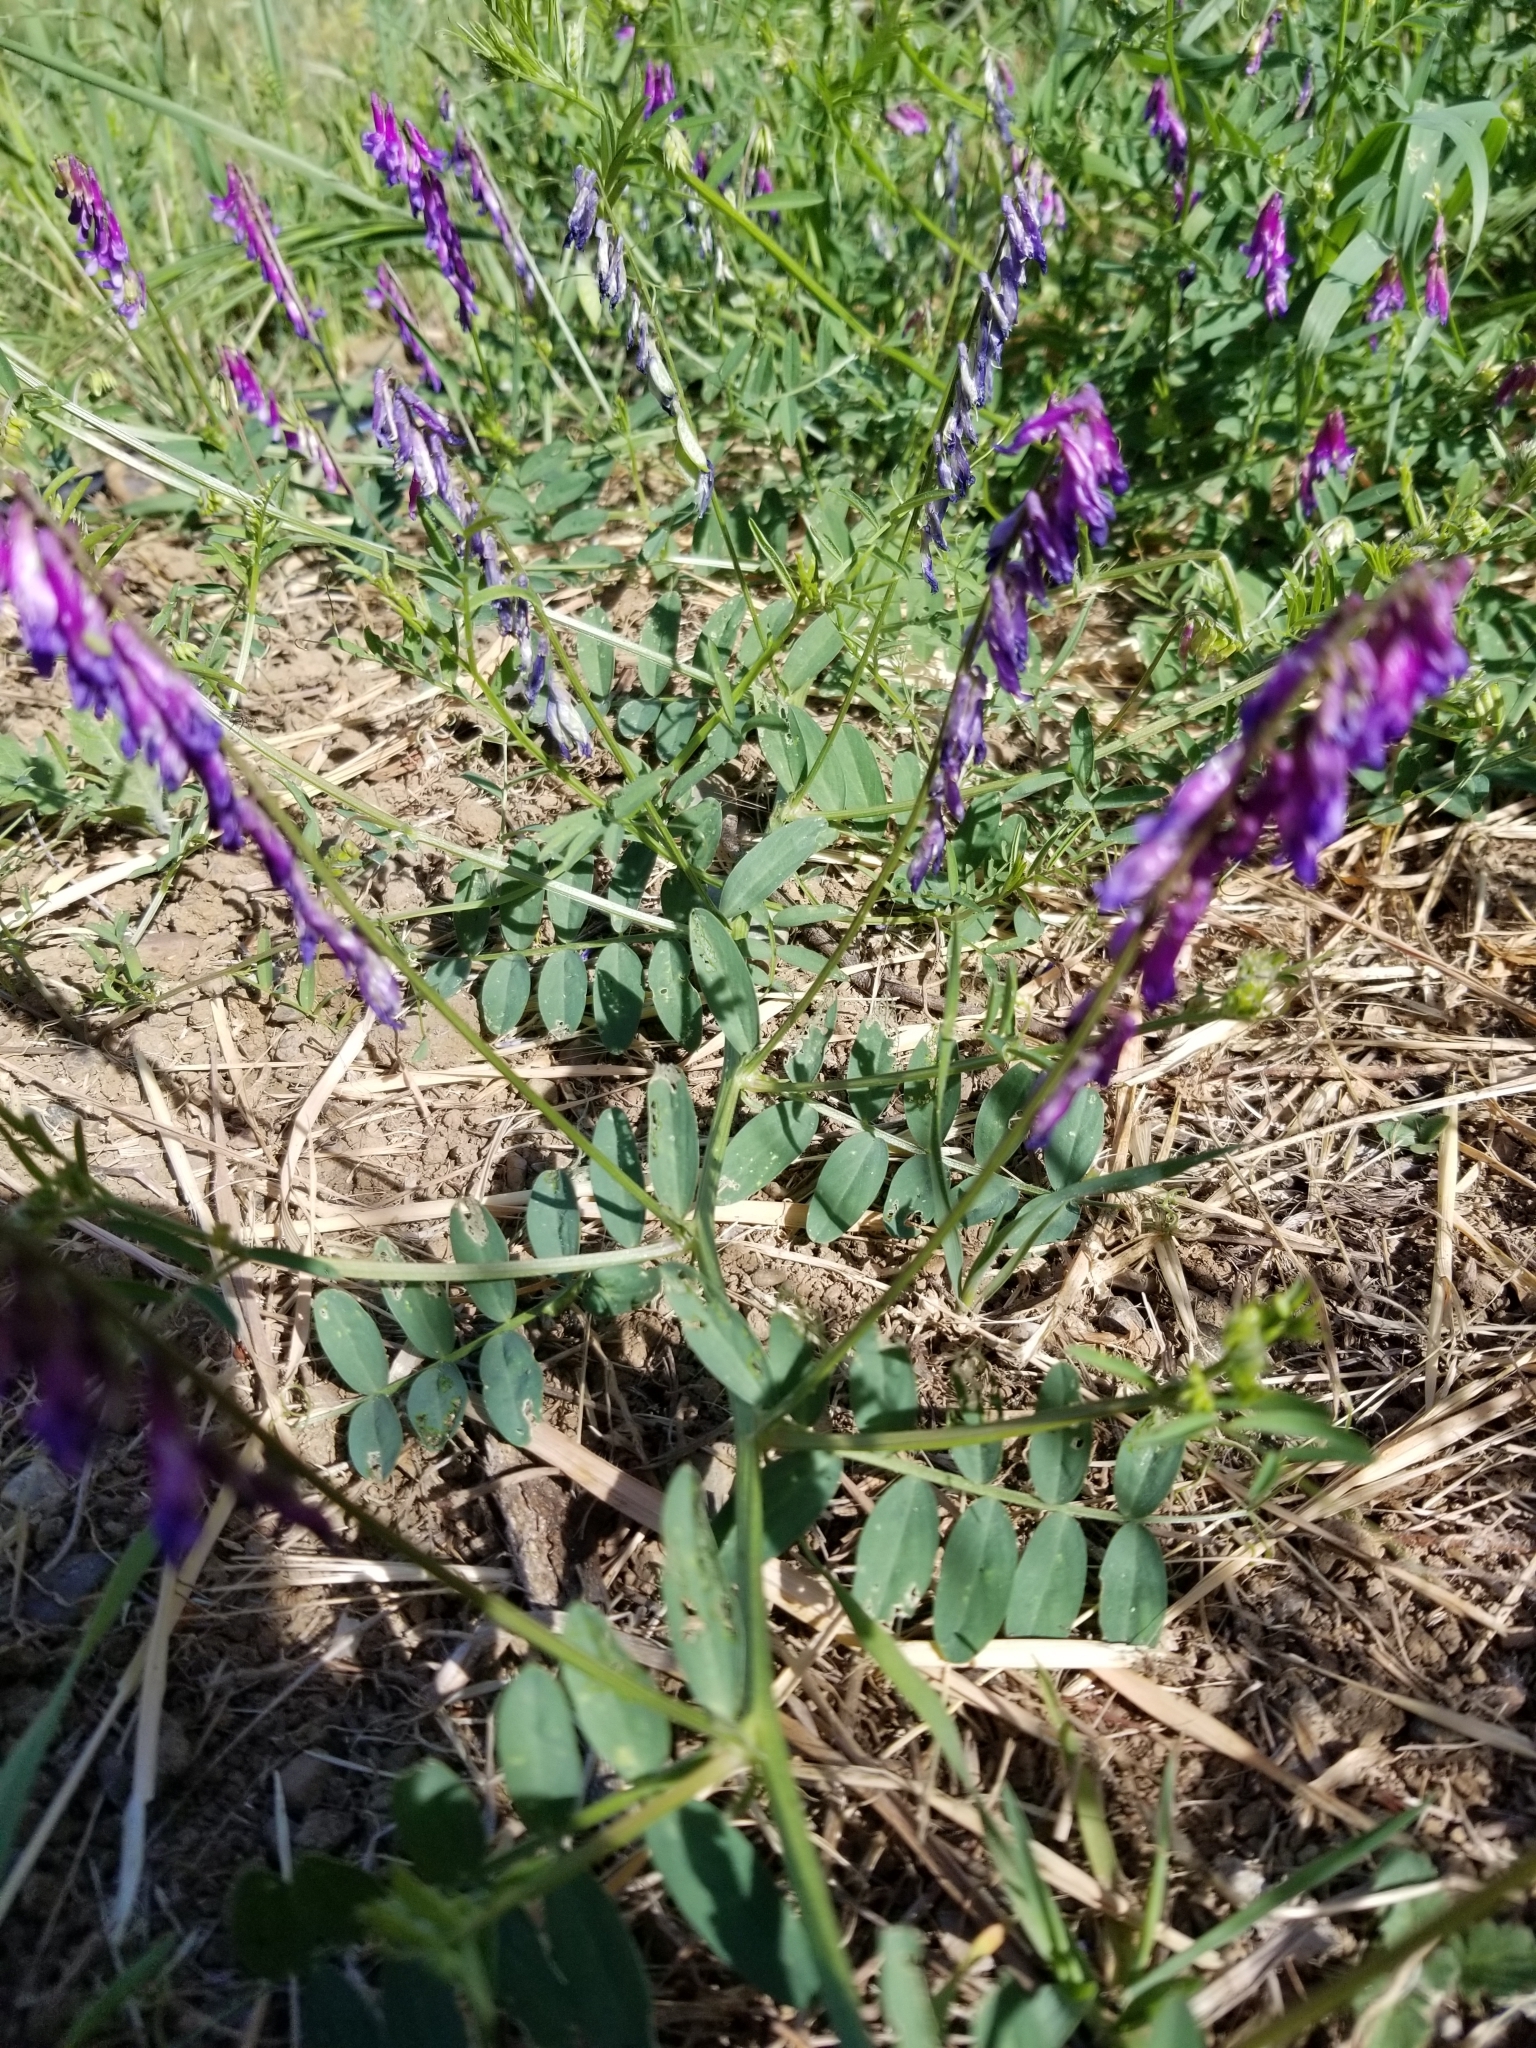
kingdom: Plantae
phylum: Tracheophyta
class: Magnoliopsida
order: Fabales
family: Fabaceae
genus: Vicia
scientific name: Vicia villosa
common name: Fodder vetch
